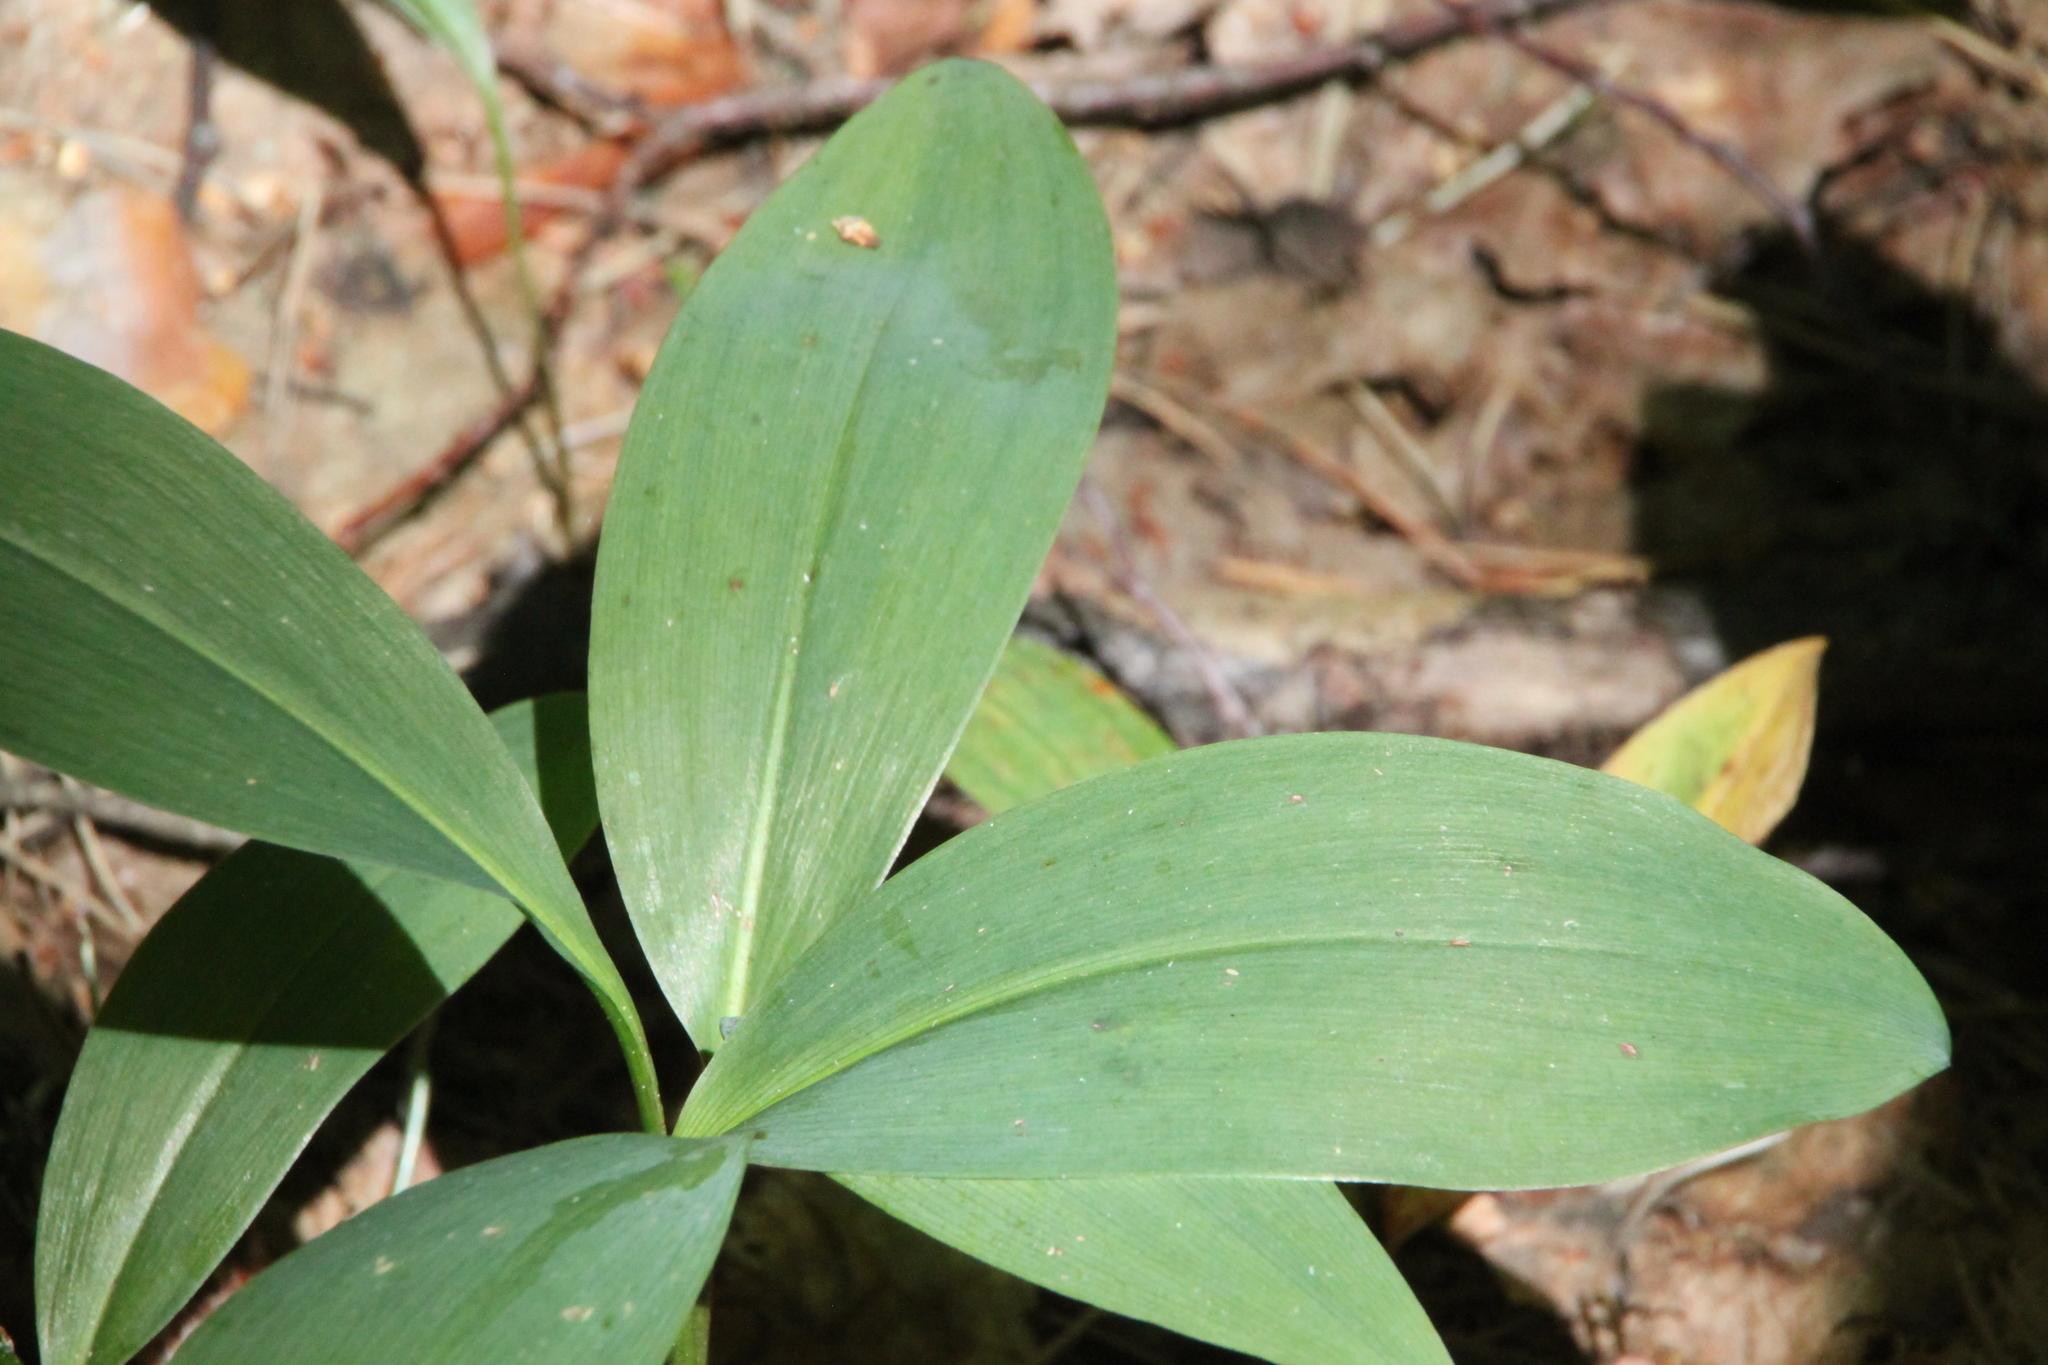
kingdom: Plantae
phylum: Tracheophyta
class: Liliopsida
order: Asparagales
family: Asparagaceae
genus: Convallaria
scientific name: Convallaria majalis
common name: Lily-of-the-valley
